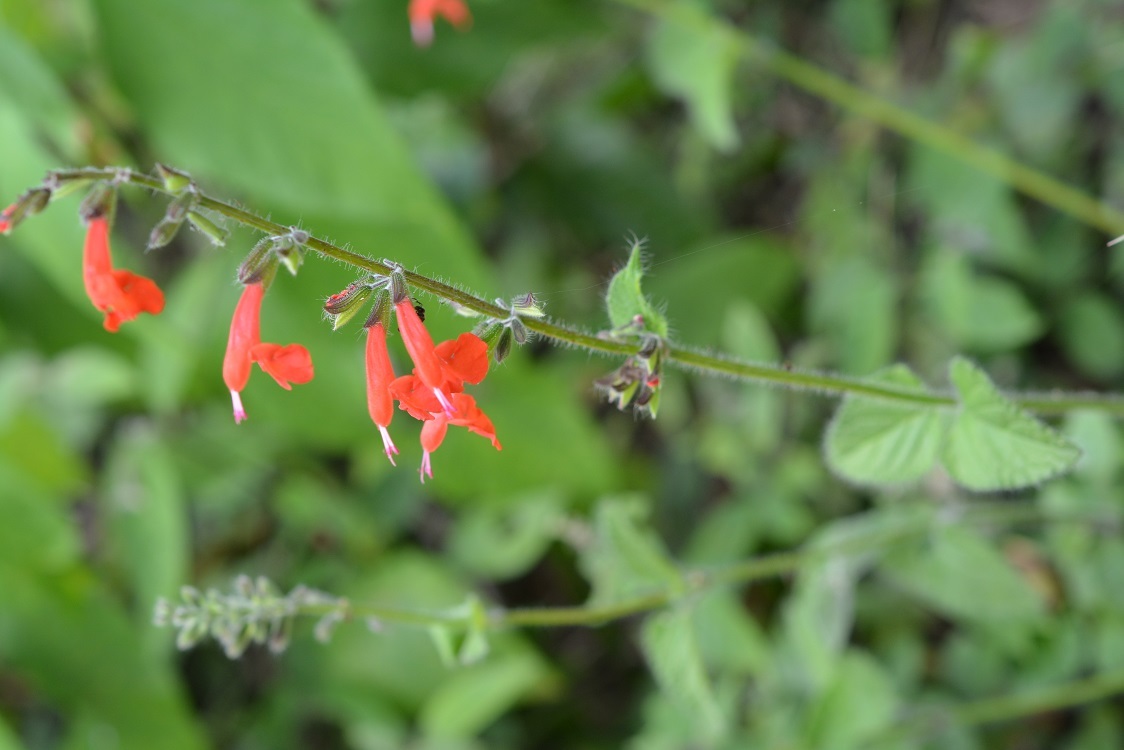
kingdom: Plantae
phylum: Tracheophyta
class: Magnoliopsida
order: Lamiales
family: Lamiaceae
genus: Salvia
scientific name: Salvia coccinea
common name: Blood sage
